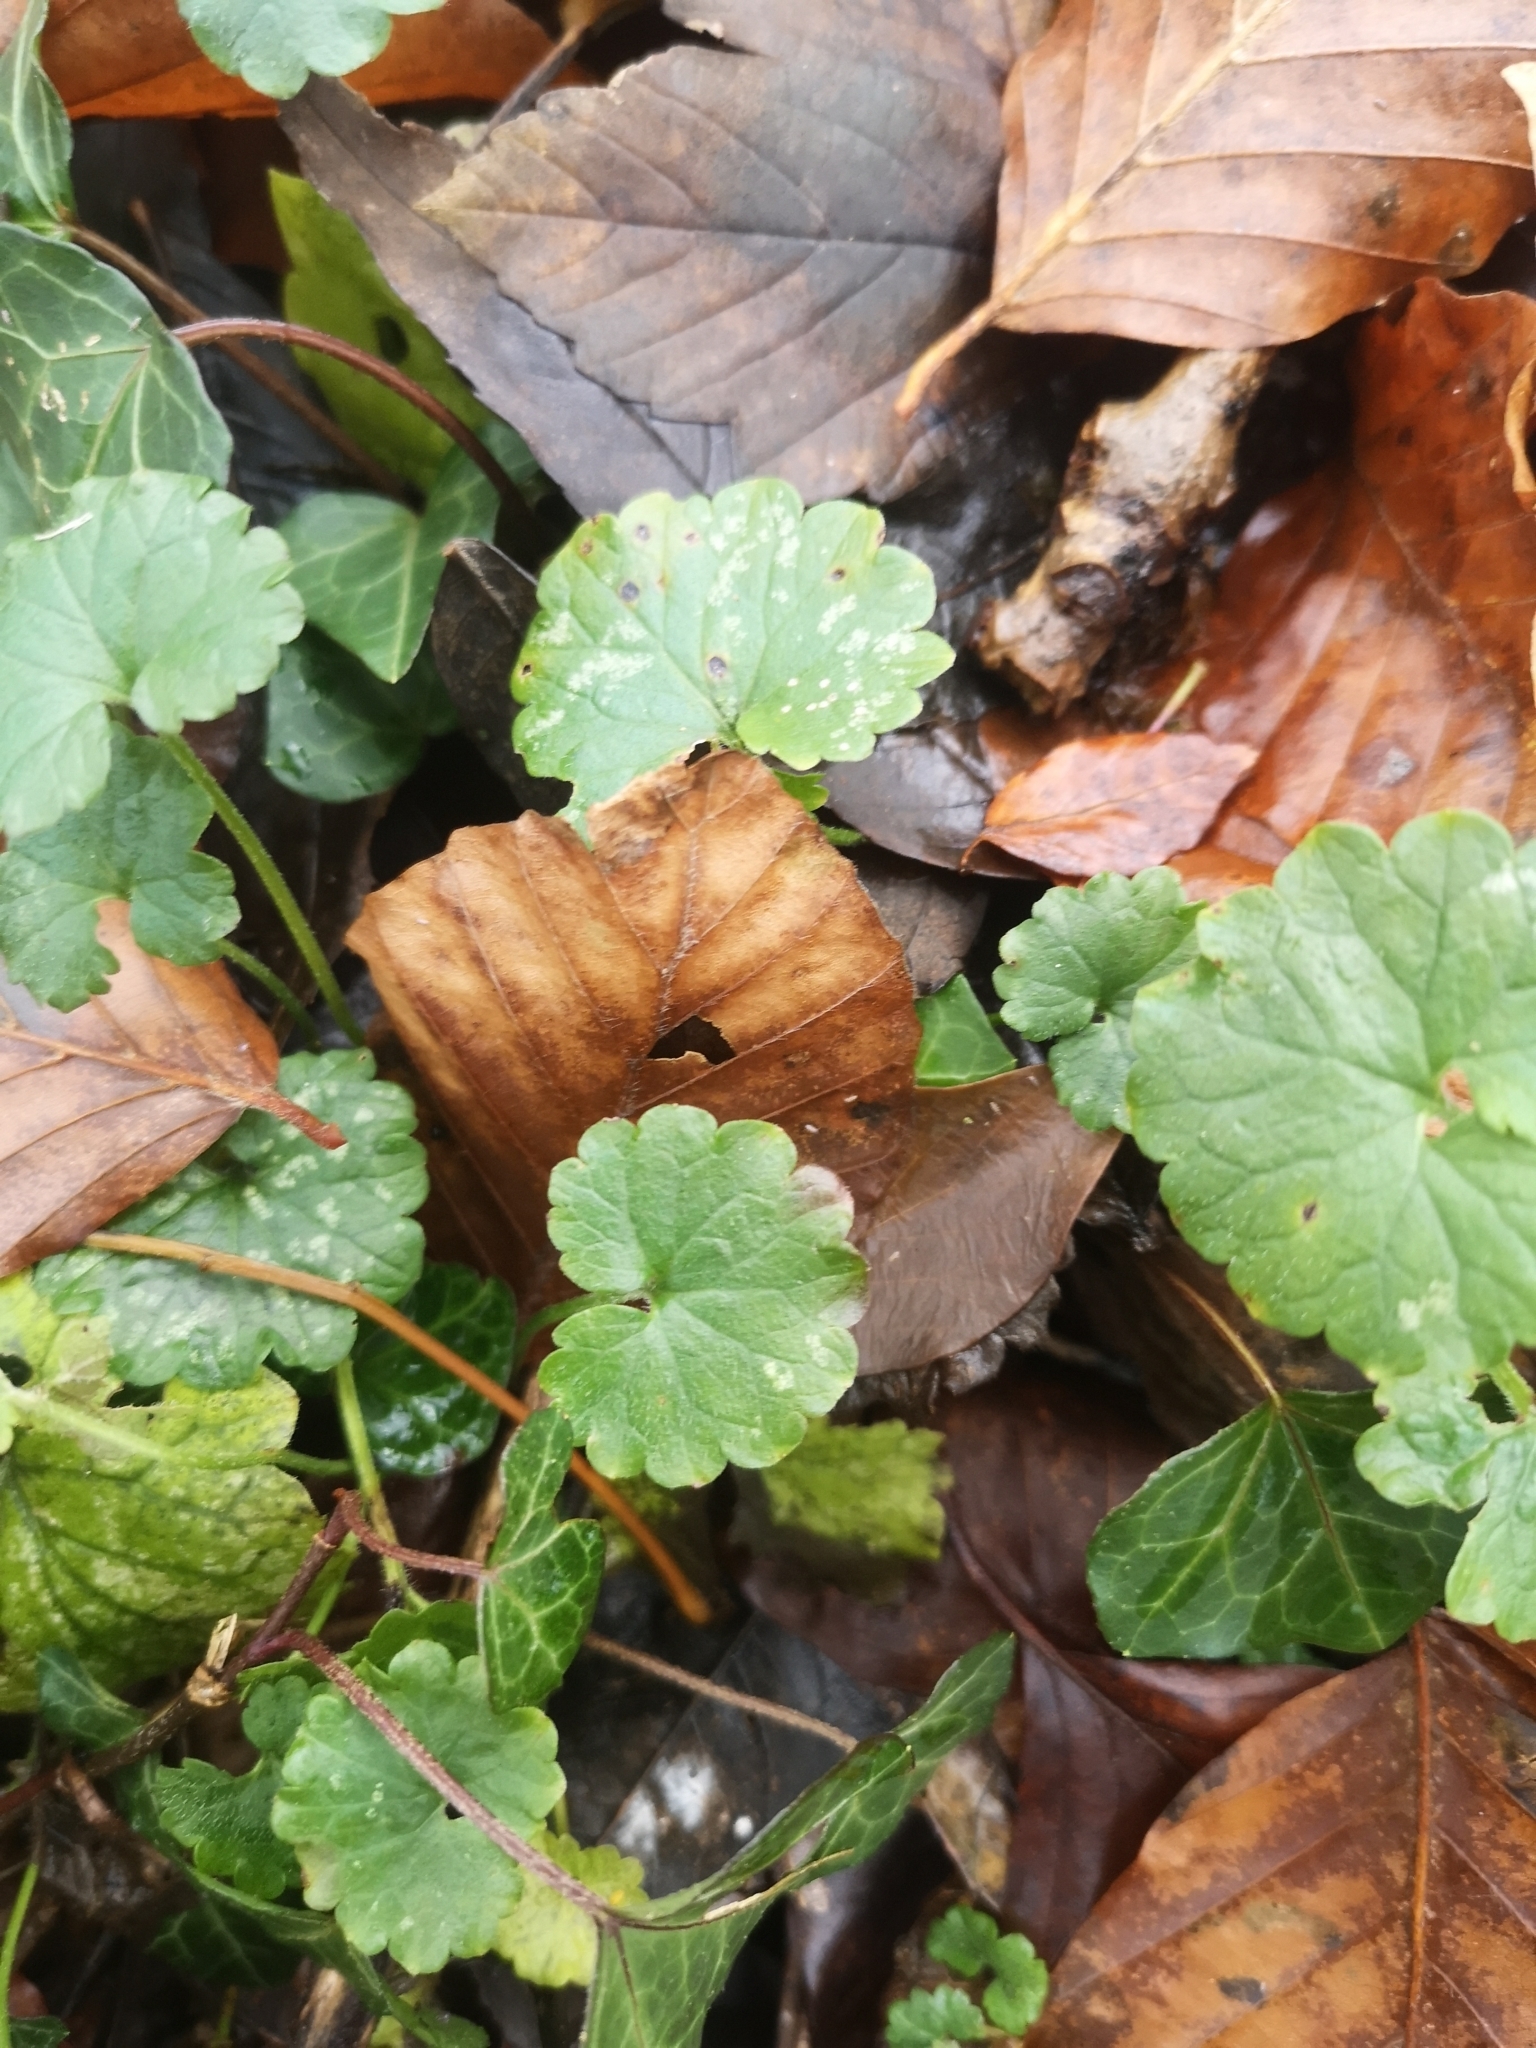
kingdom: Plantae
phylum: Tracheophyta
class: Magnoliopsida
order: Lamiales
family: Lamiaceae
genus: Glechoma
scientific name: Glechoma hederacea
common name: Ground ivy
